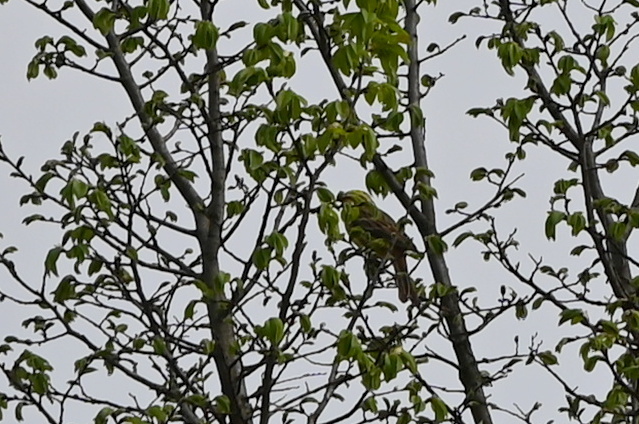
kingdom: Animalia
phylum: Chordata
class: Aves
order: Passeriformes
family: Emberizidae
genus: Emberiza
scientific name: Emberiza citrinella
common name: Yellowhammer
